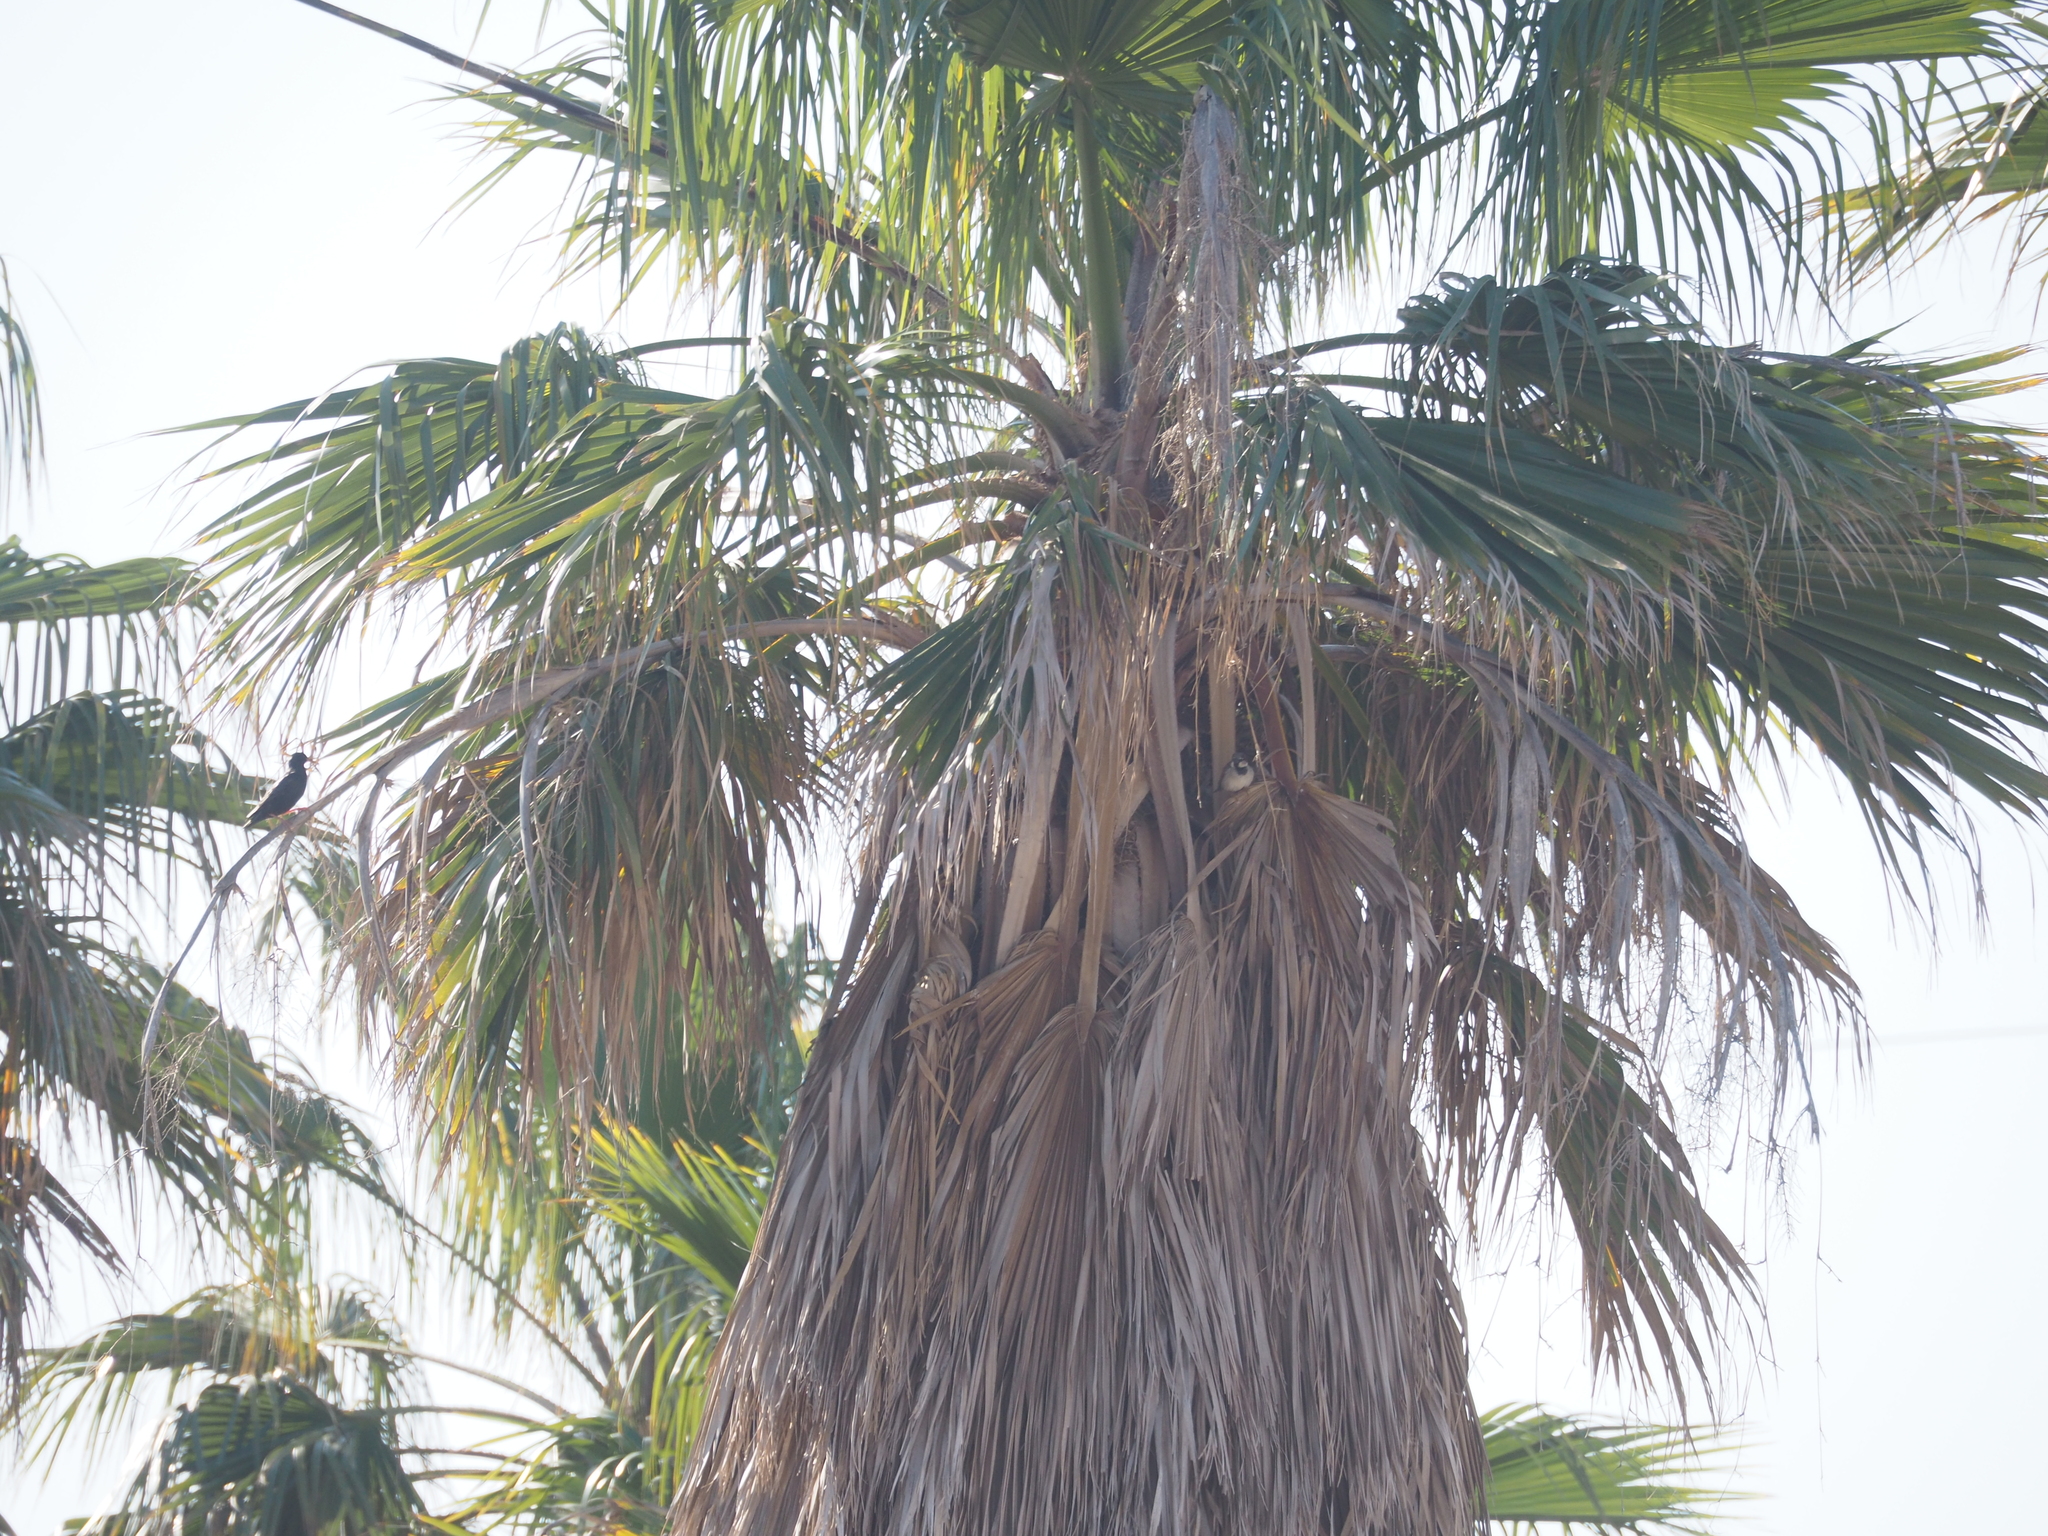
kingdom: Animalia
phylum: Chordata
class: Aves
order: Passeriformes
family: Sturnidae
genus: Sturnus
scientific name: Sturnus unicolor
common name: Spotless starling
